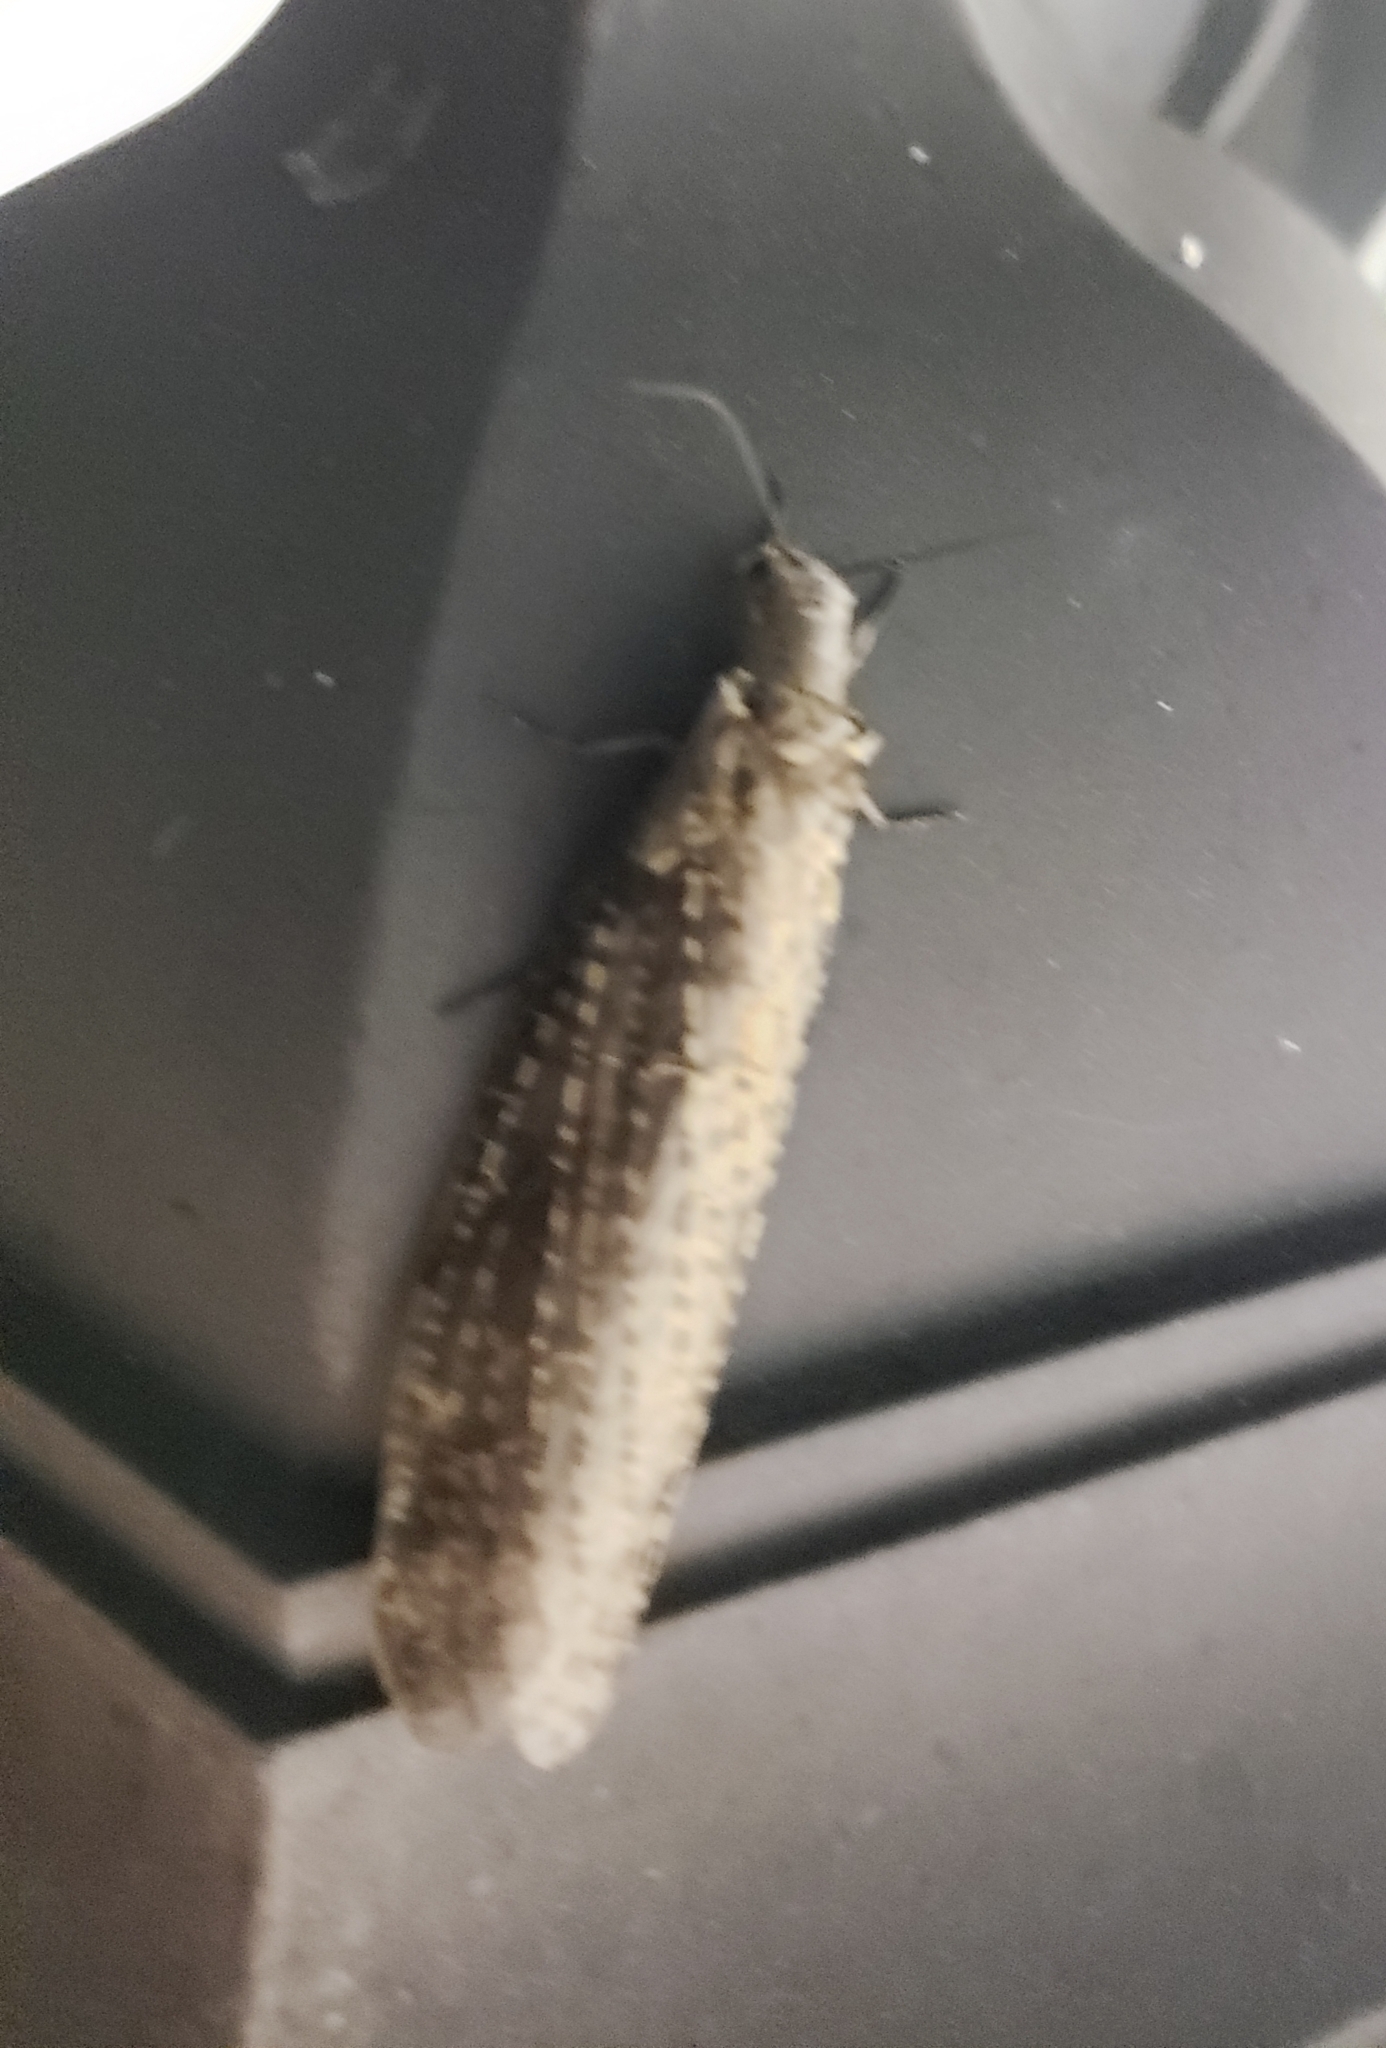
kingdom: Animalia
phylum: Arthropoda
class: Insecta
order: Megaloptera
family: Corydalidae
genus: Chauliodes
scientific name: Chauliodes rastricornis
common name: Spring fishfly
